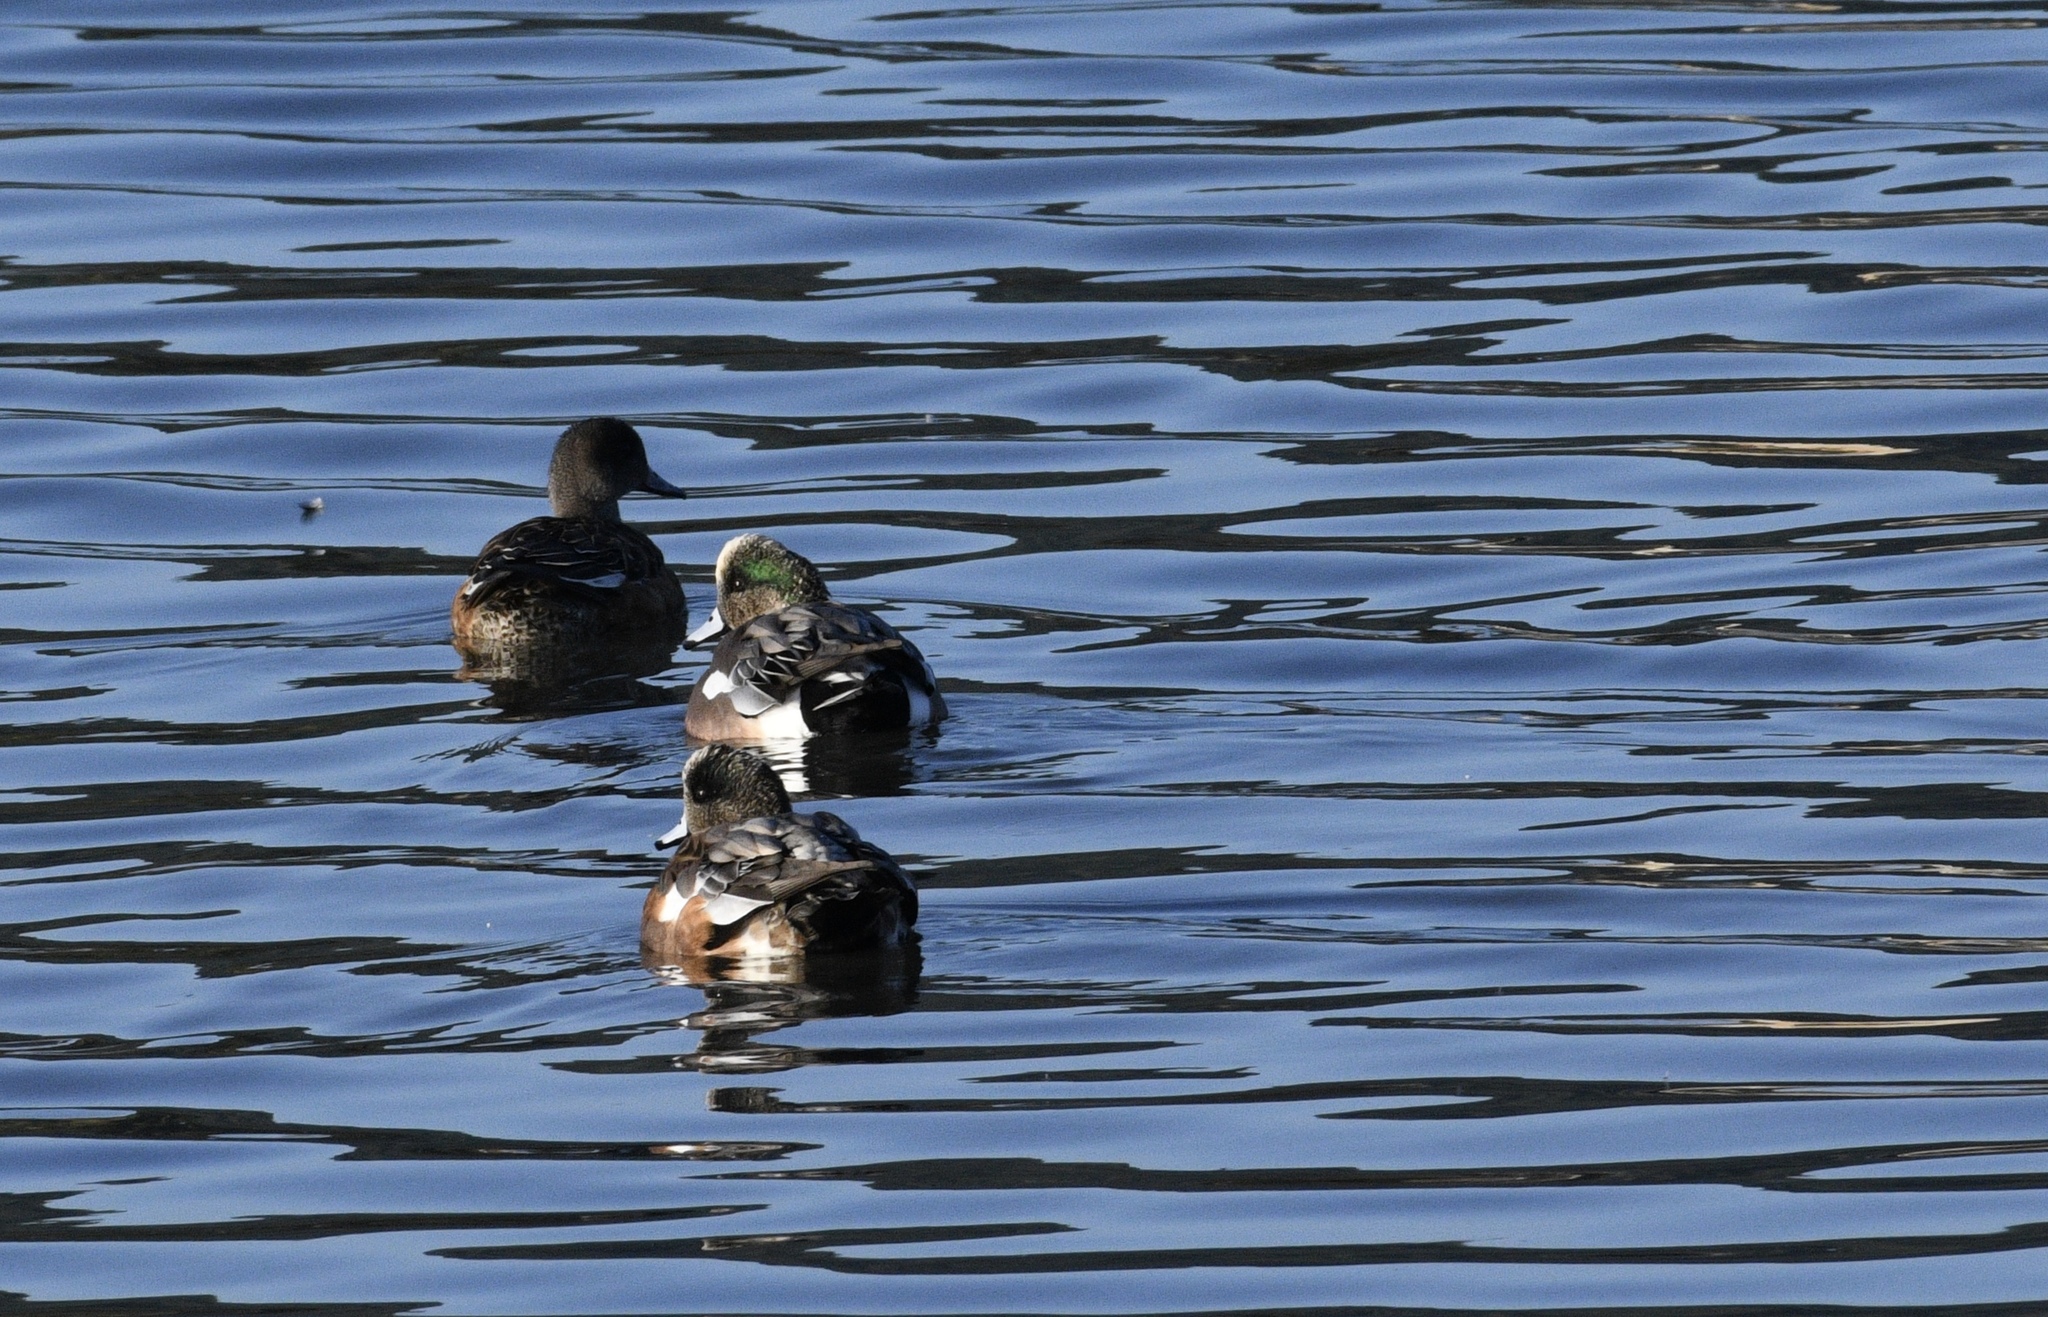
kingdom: Animalia
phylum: Chordata
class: Aves
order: Anseriformes
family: Anatidae
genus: Mareca
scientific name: Mareca americana
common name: American wigeon
